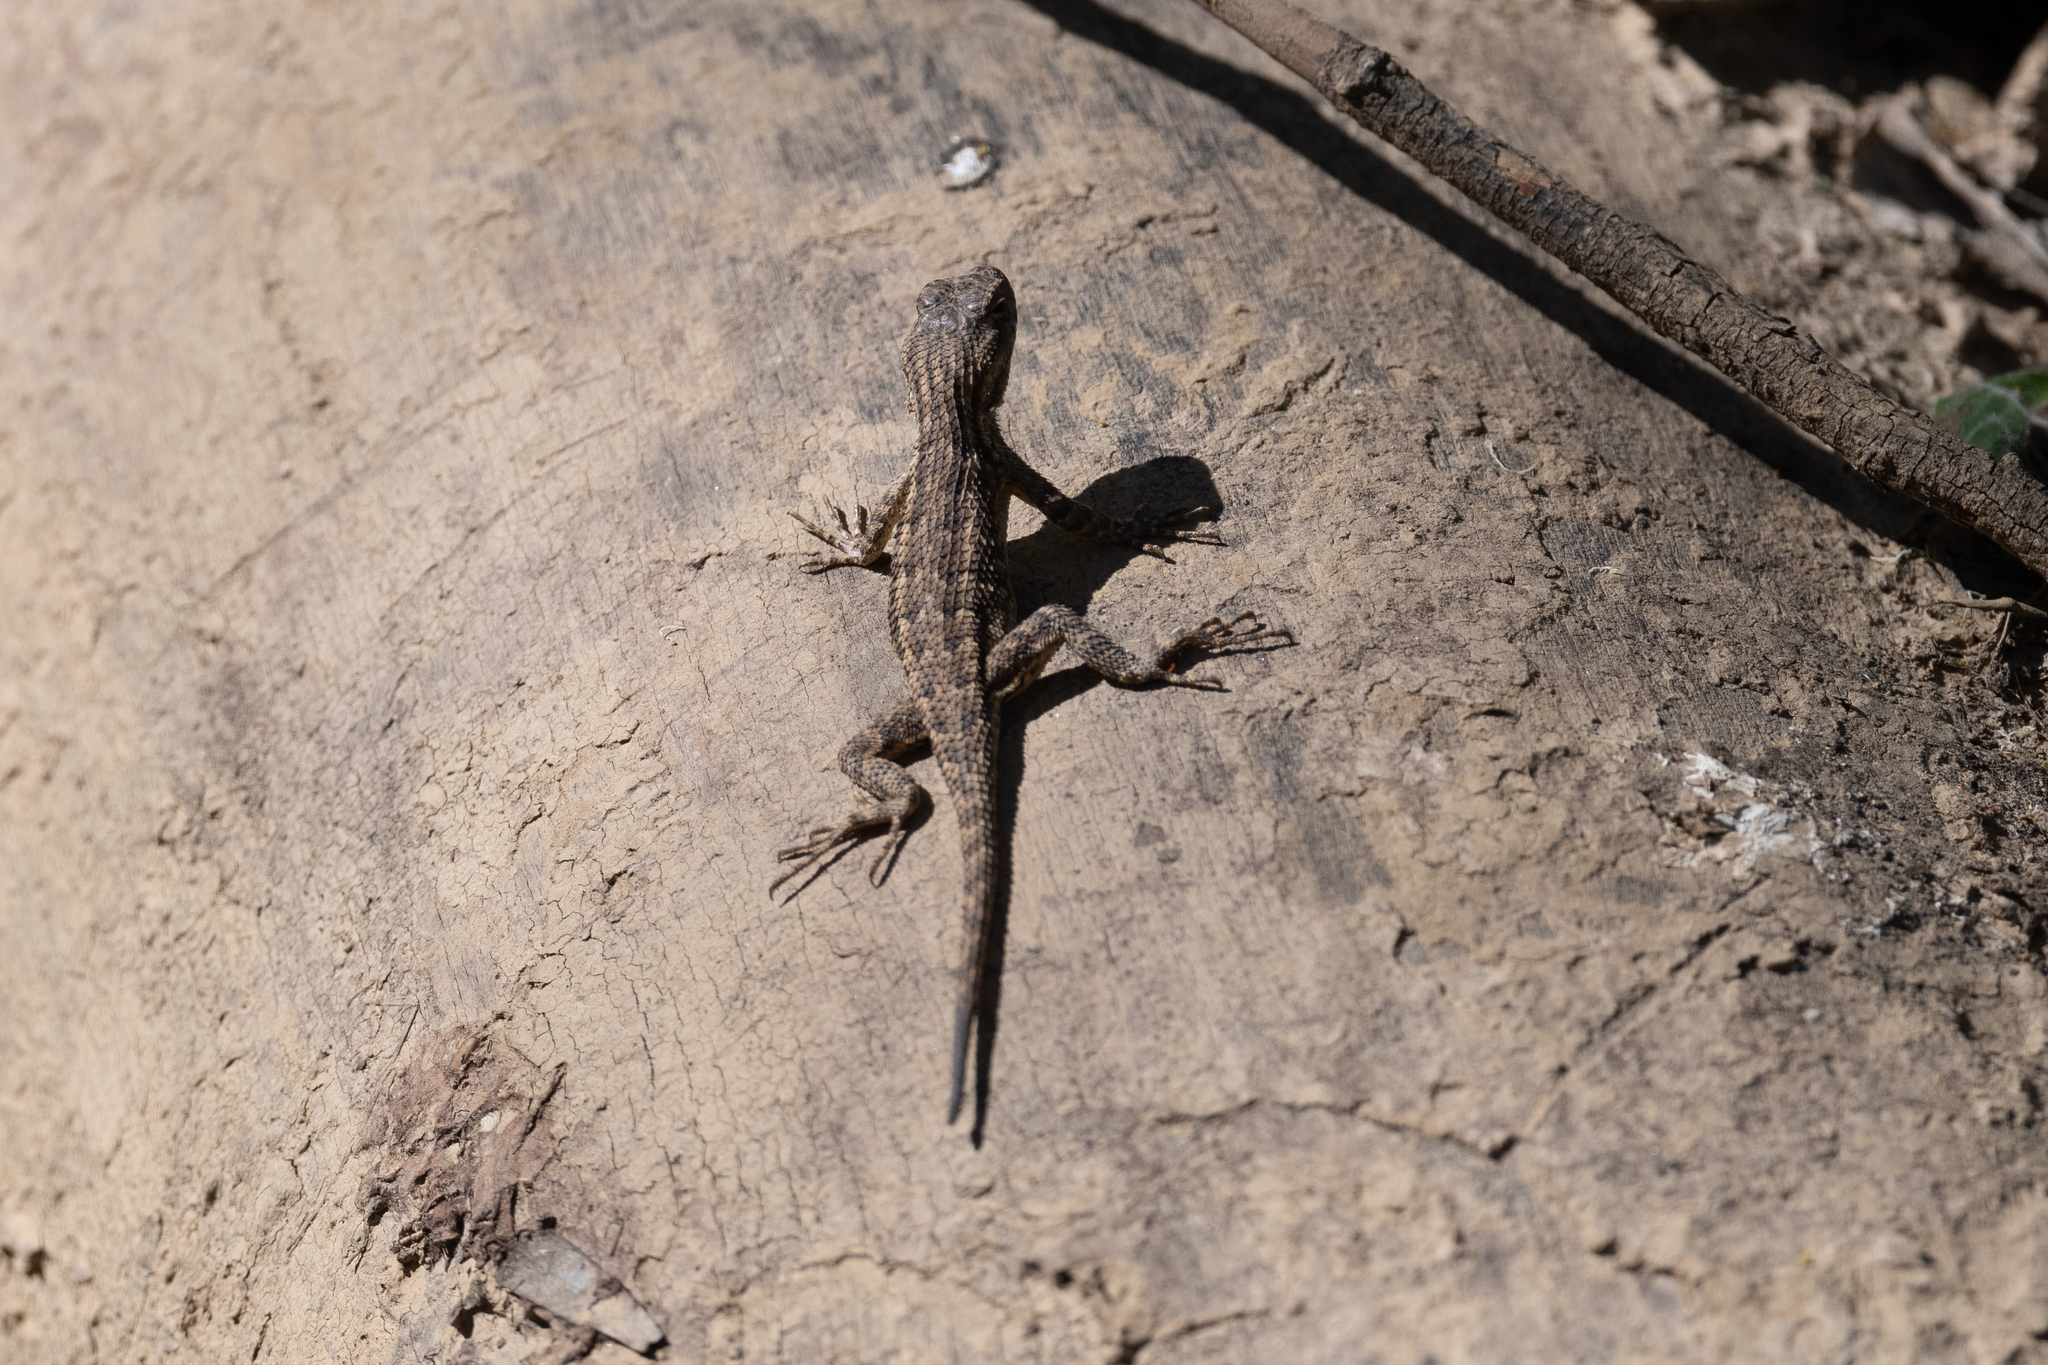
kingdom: Animalia
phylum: Chordata
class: Squamata
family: Phrynosomatidae
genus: Sceloporus
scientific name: Sceloporus occidentalis
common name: Western fence lizard
